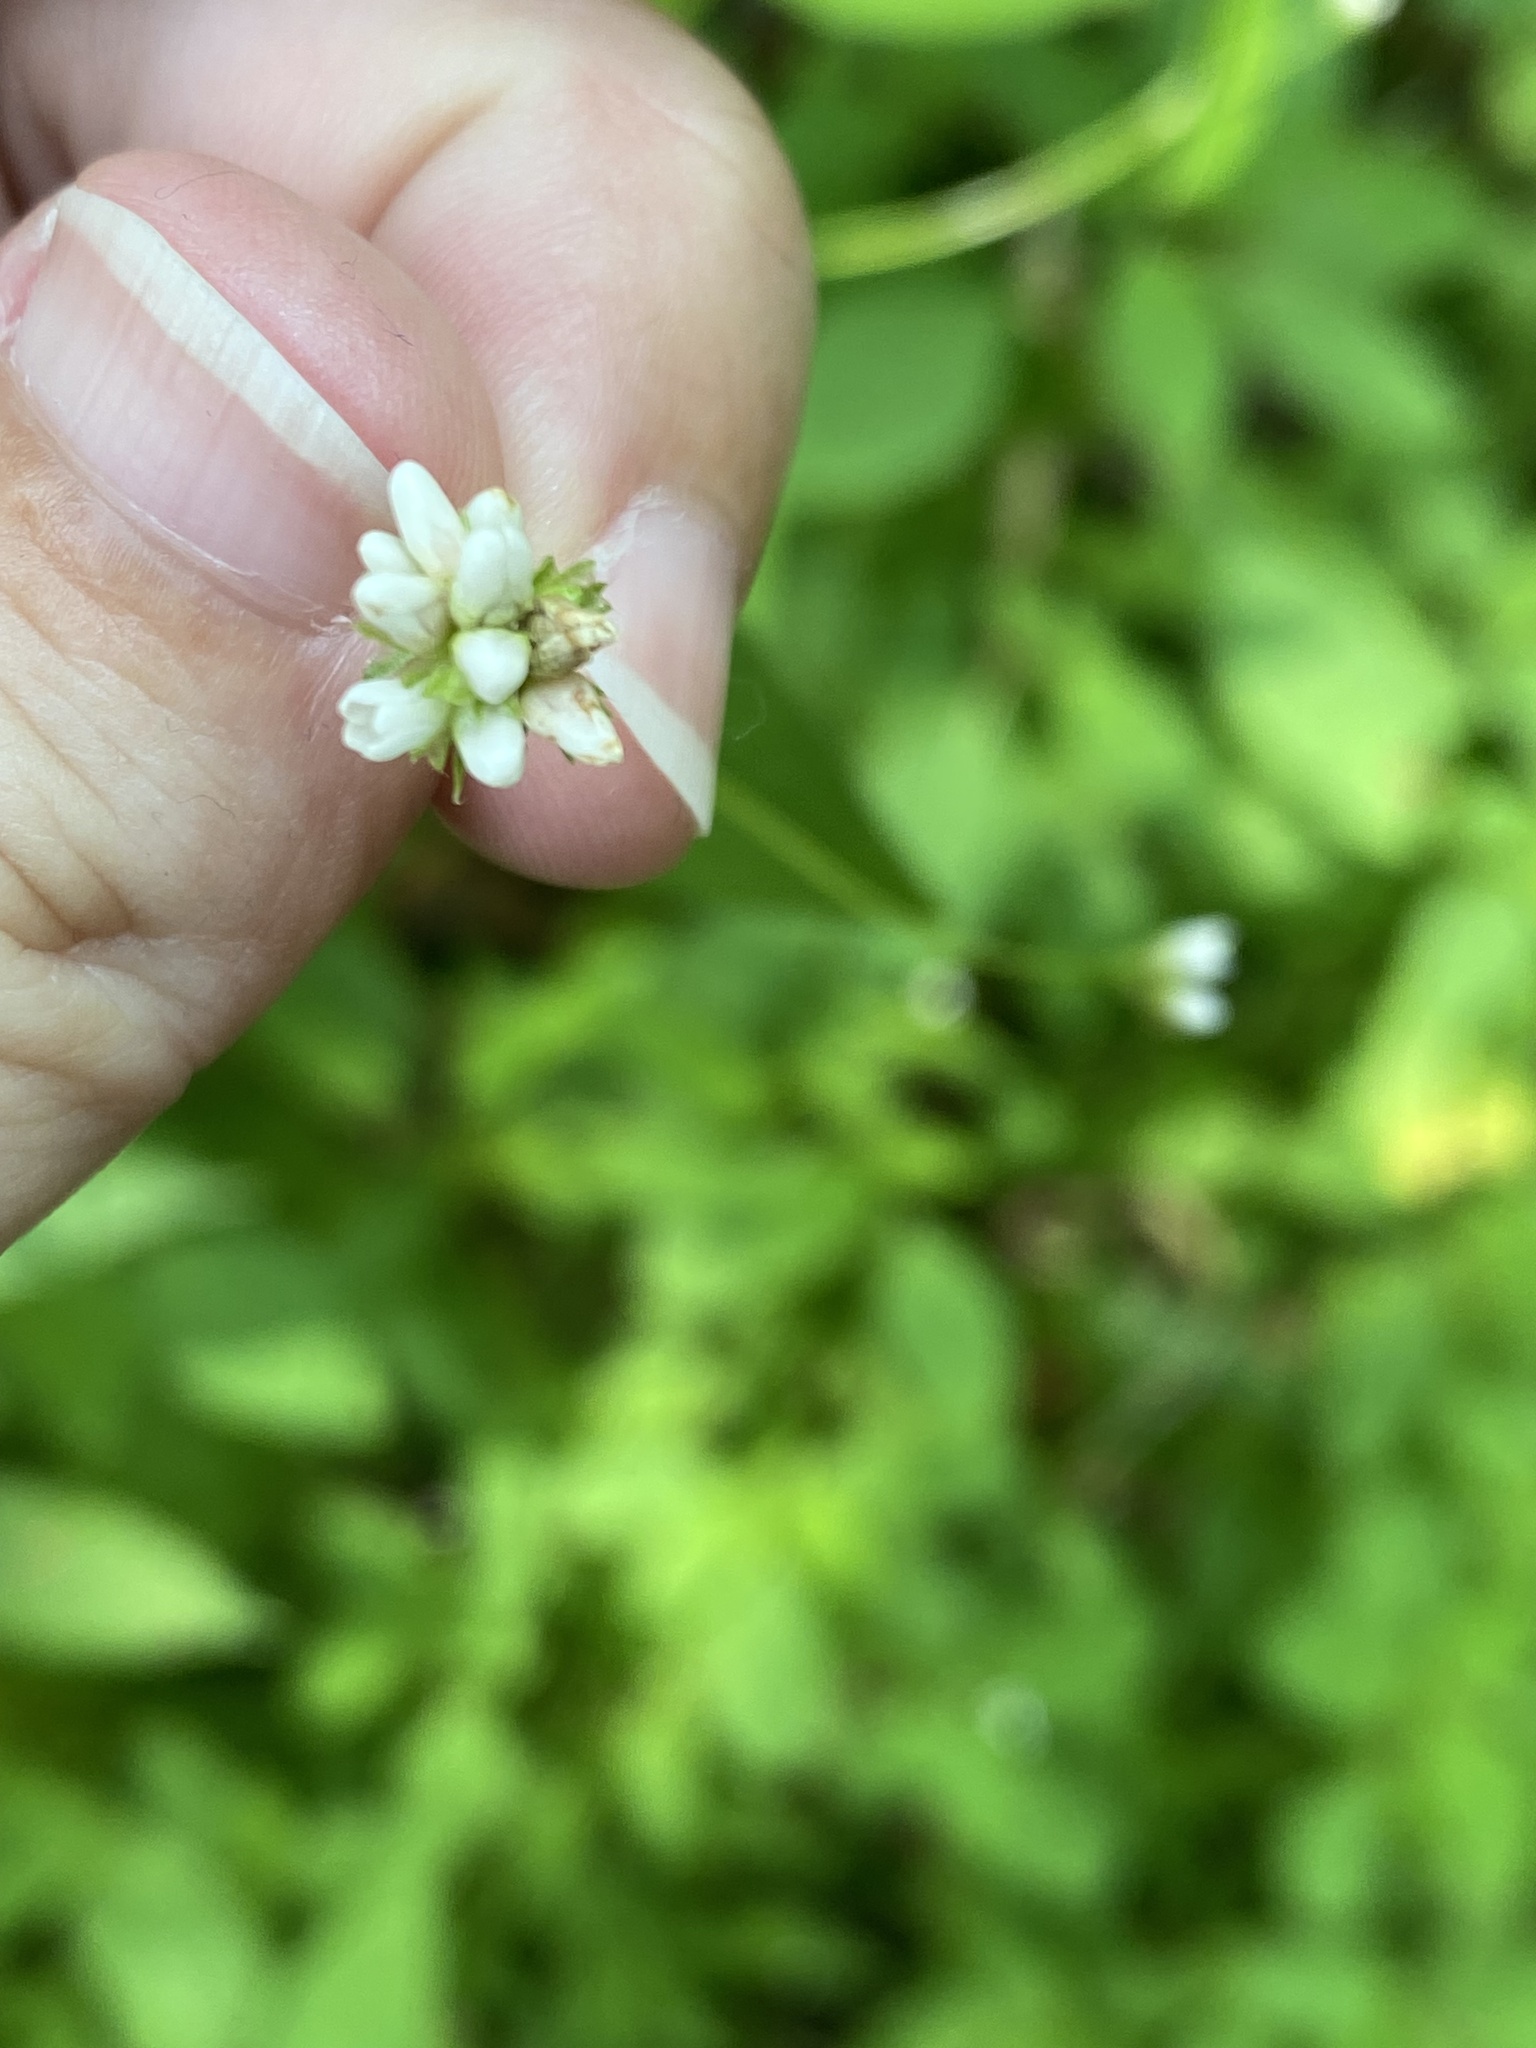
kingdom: Plantae
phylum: Tracheophyta
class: Magnoliopsida
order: Caryophyllales
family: Polygonaceae
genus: Persicaria
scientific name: Persicaria sagittata
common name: American tearthumb
